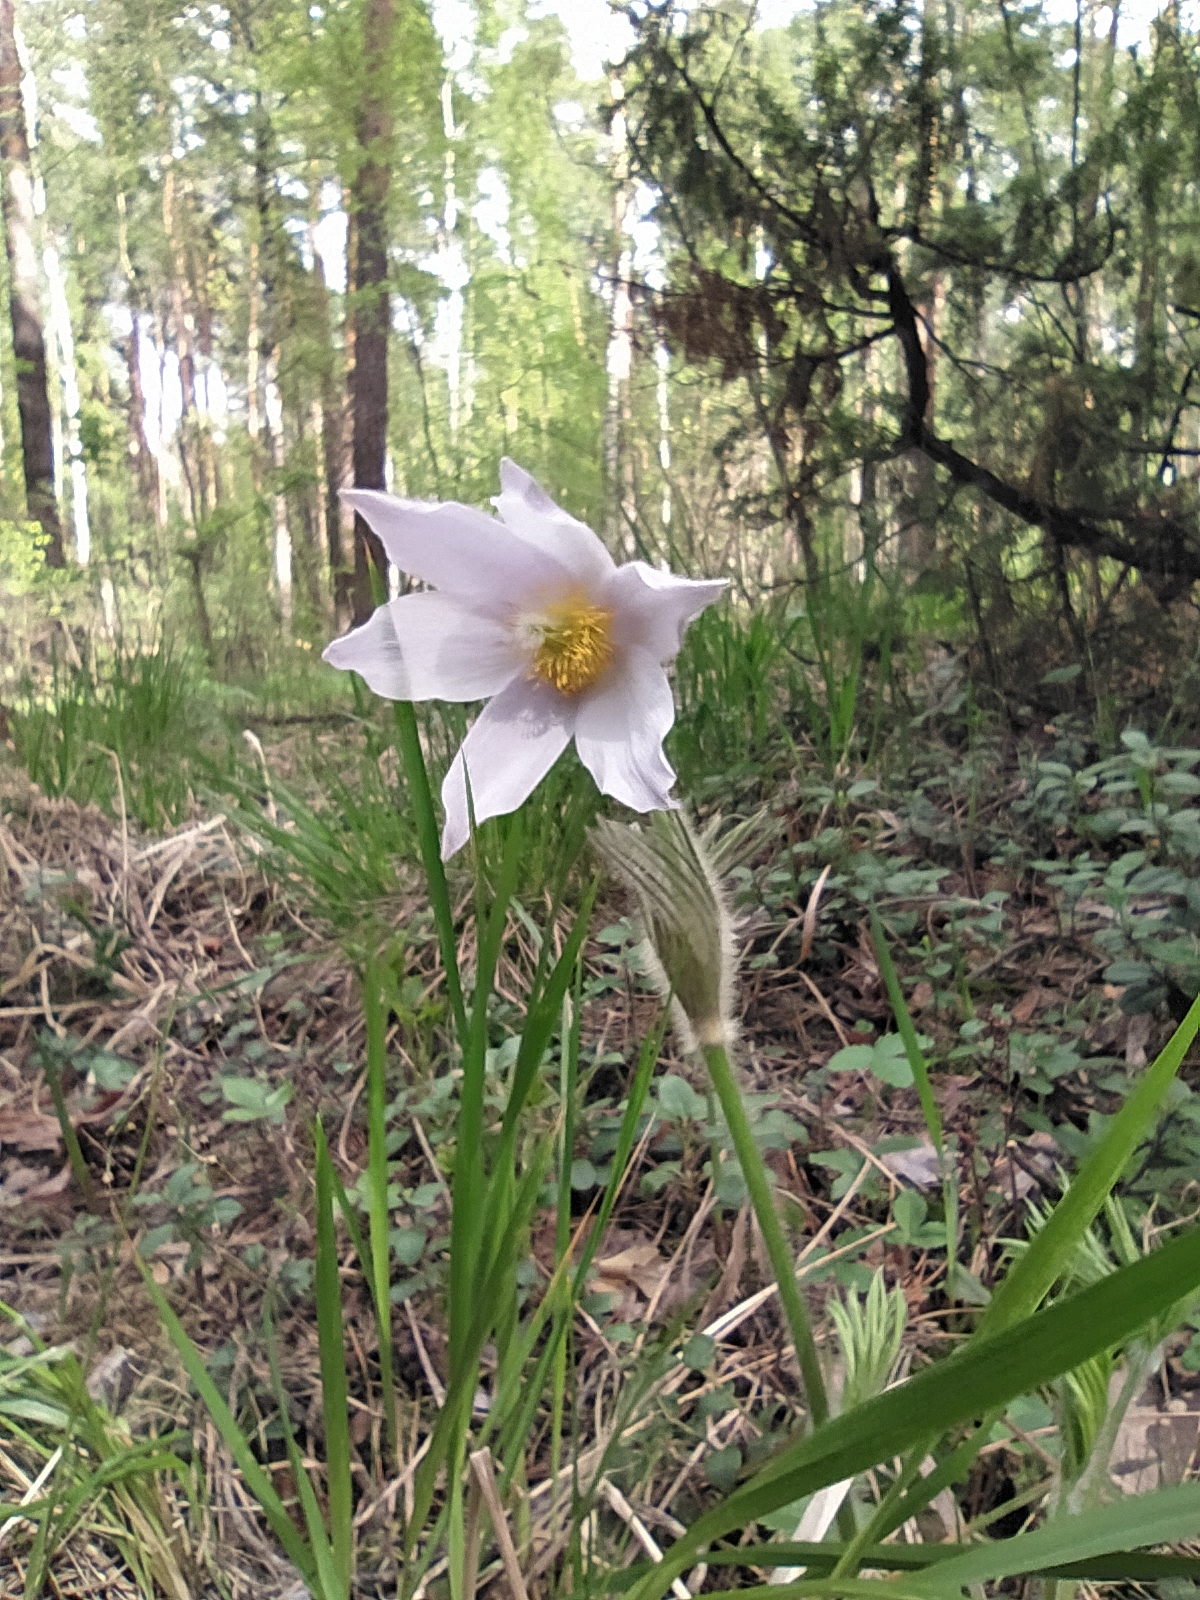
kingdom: Plantae
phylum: Tracheophyta
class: Magnoliopsida
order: Ranunculales
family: Ranunculaceae
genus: Pulsatilla
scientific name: Pulsatilla patens
